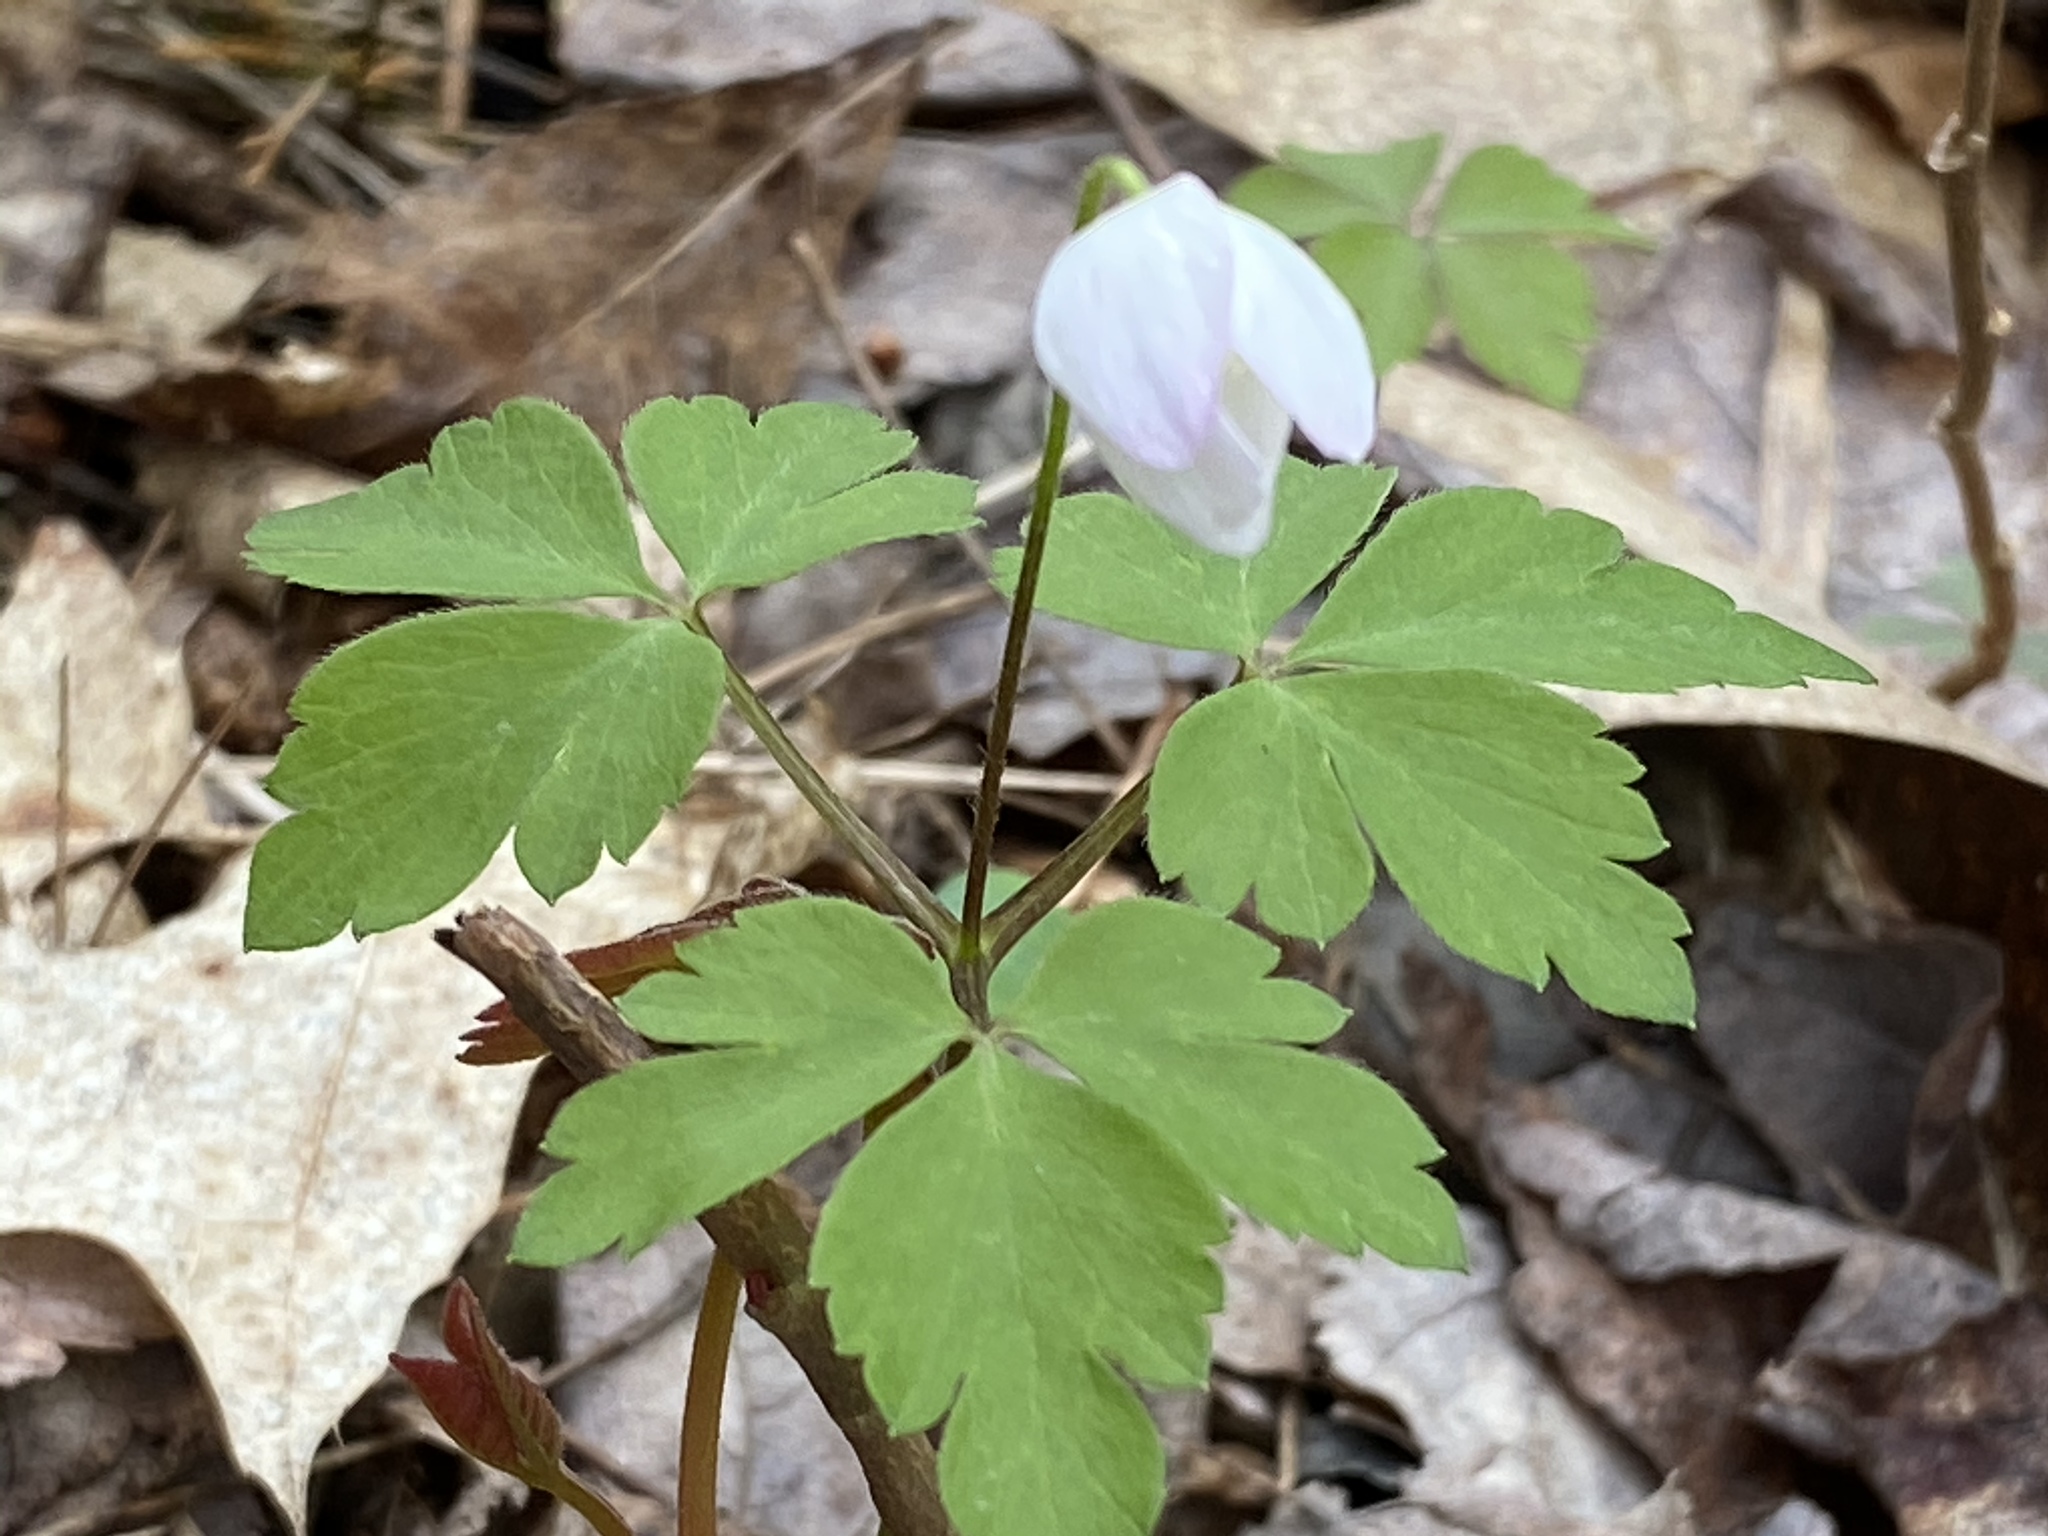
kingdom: Plantae
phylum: Tracheophyta
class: Magnoliopsida
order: Ranunculales
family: Ranunculaceae
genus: Anemone
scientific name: Anemone quinquefolia
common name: Wood anemone
